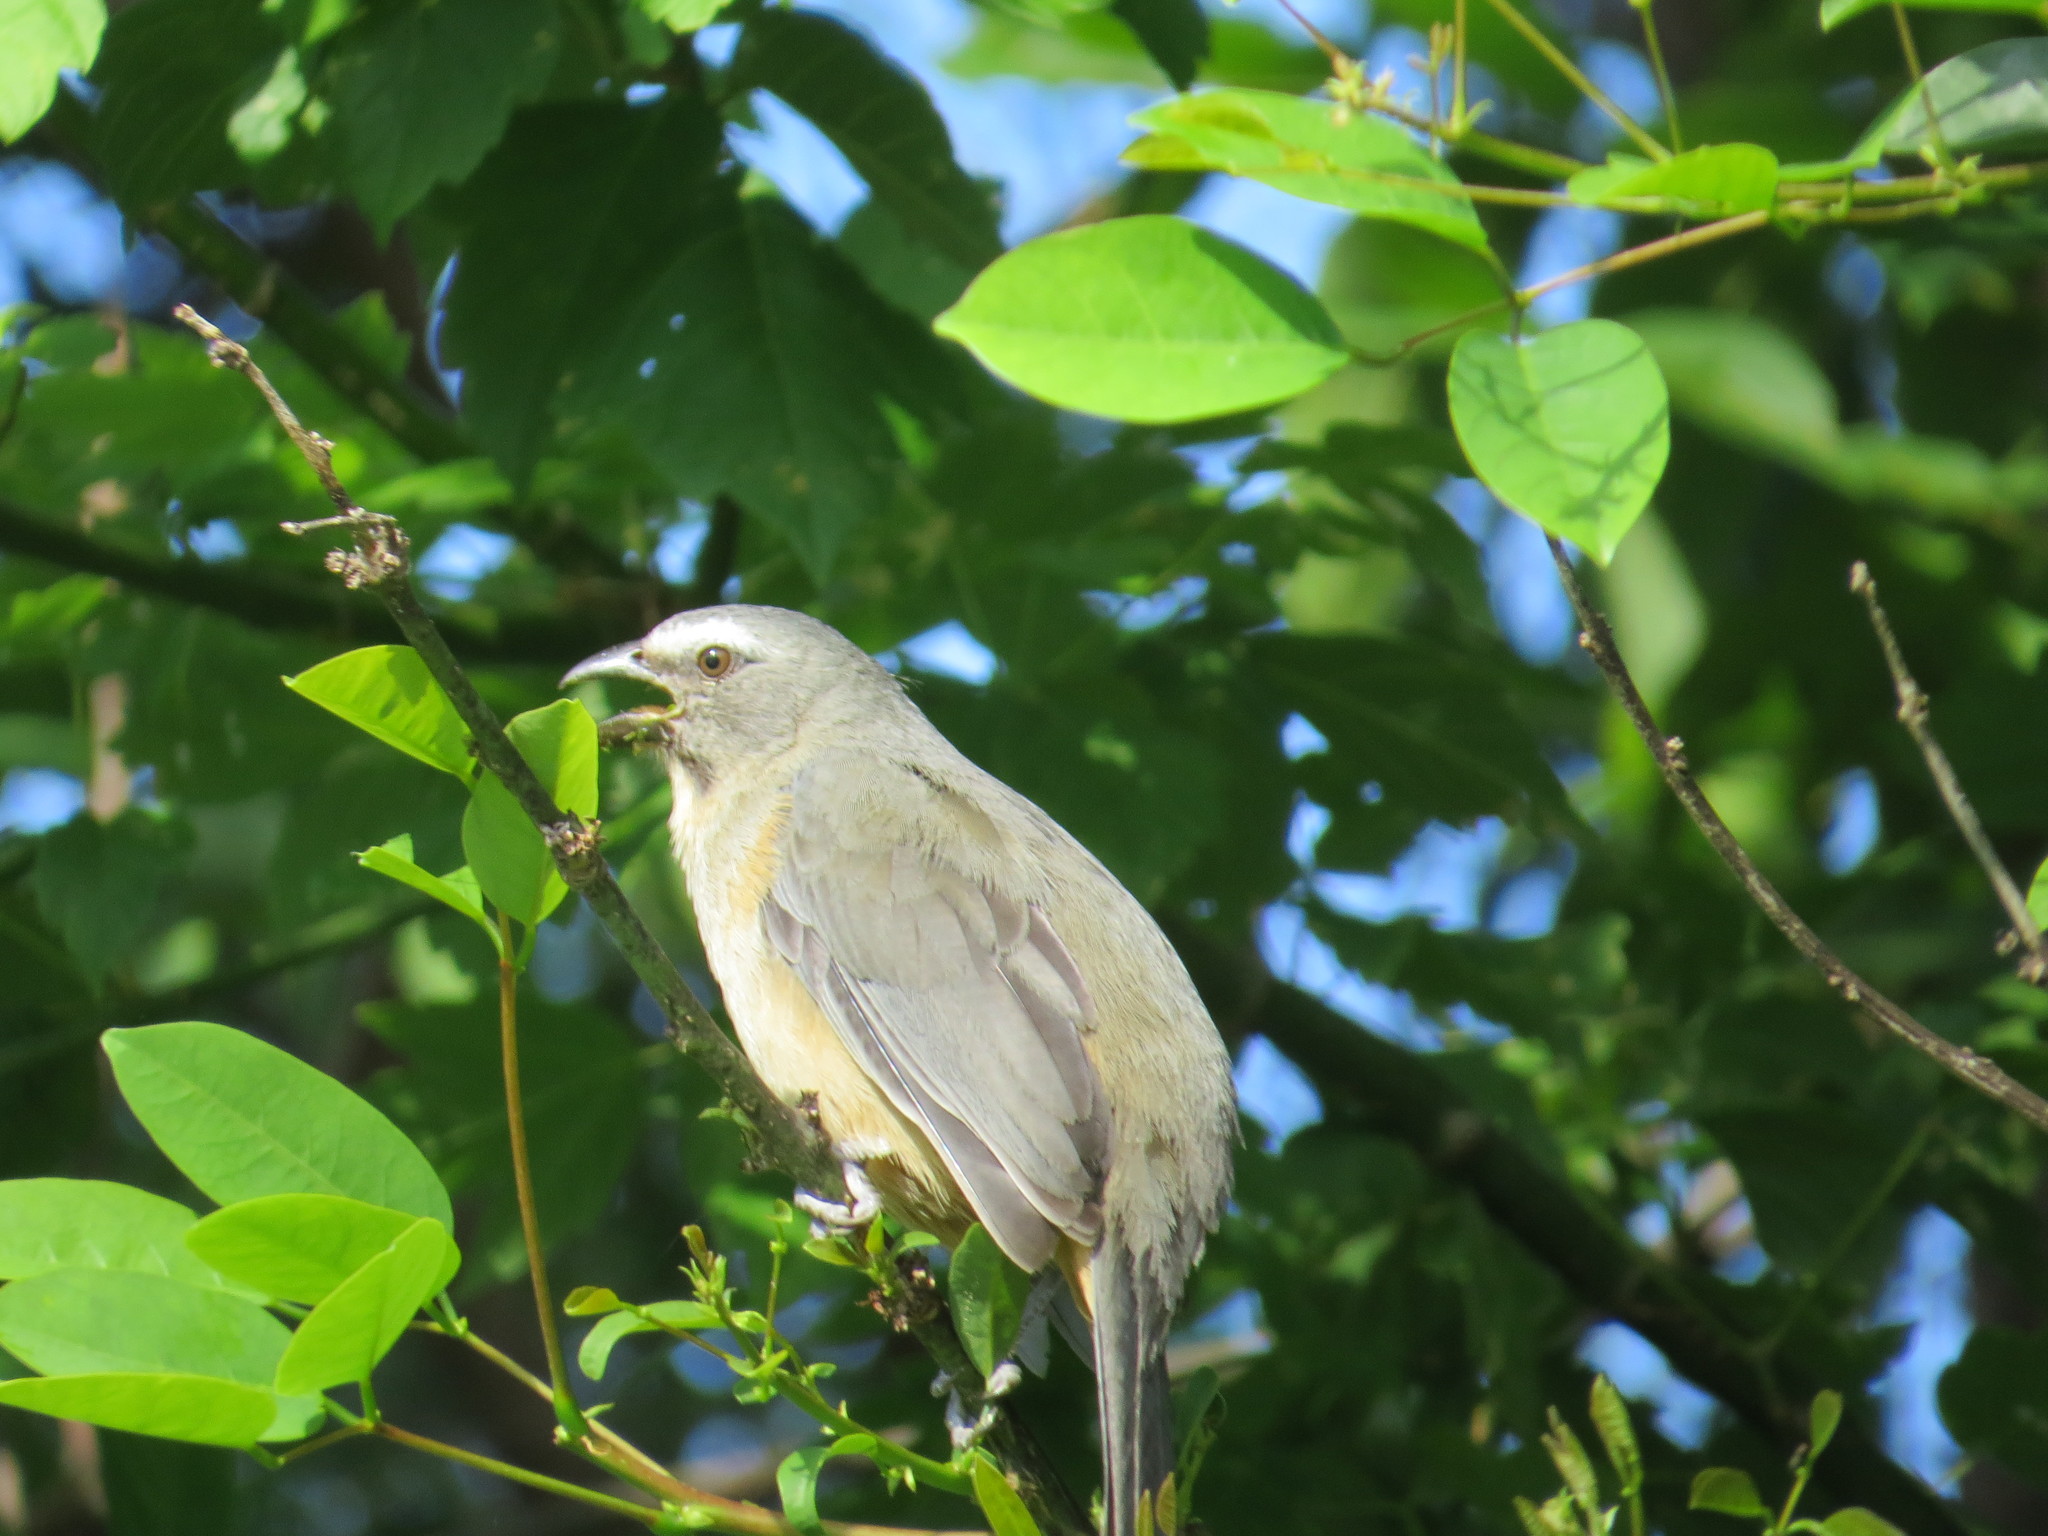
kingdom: Animalia
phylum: Chordata
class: Aves
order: Passeriformes
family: Thraupidae
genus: Saltator
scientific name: Saltator coerulescens
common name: Grayish saltator
